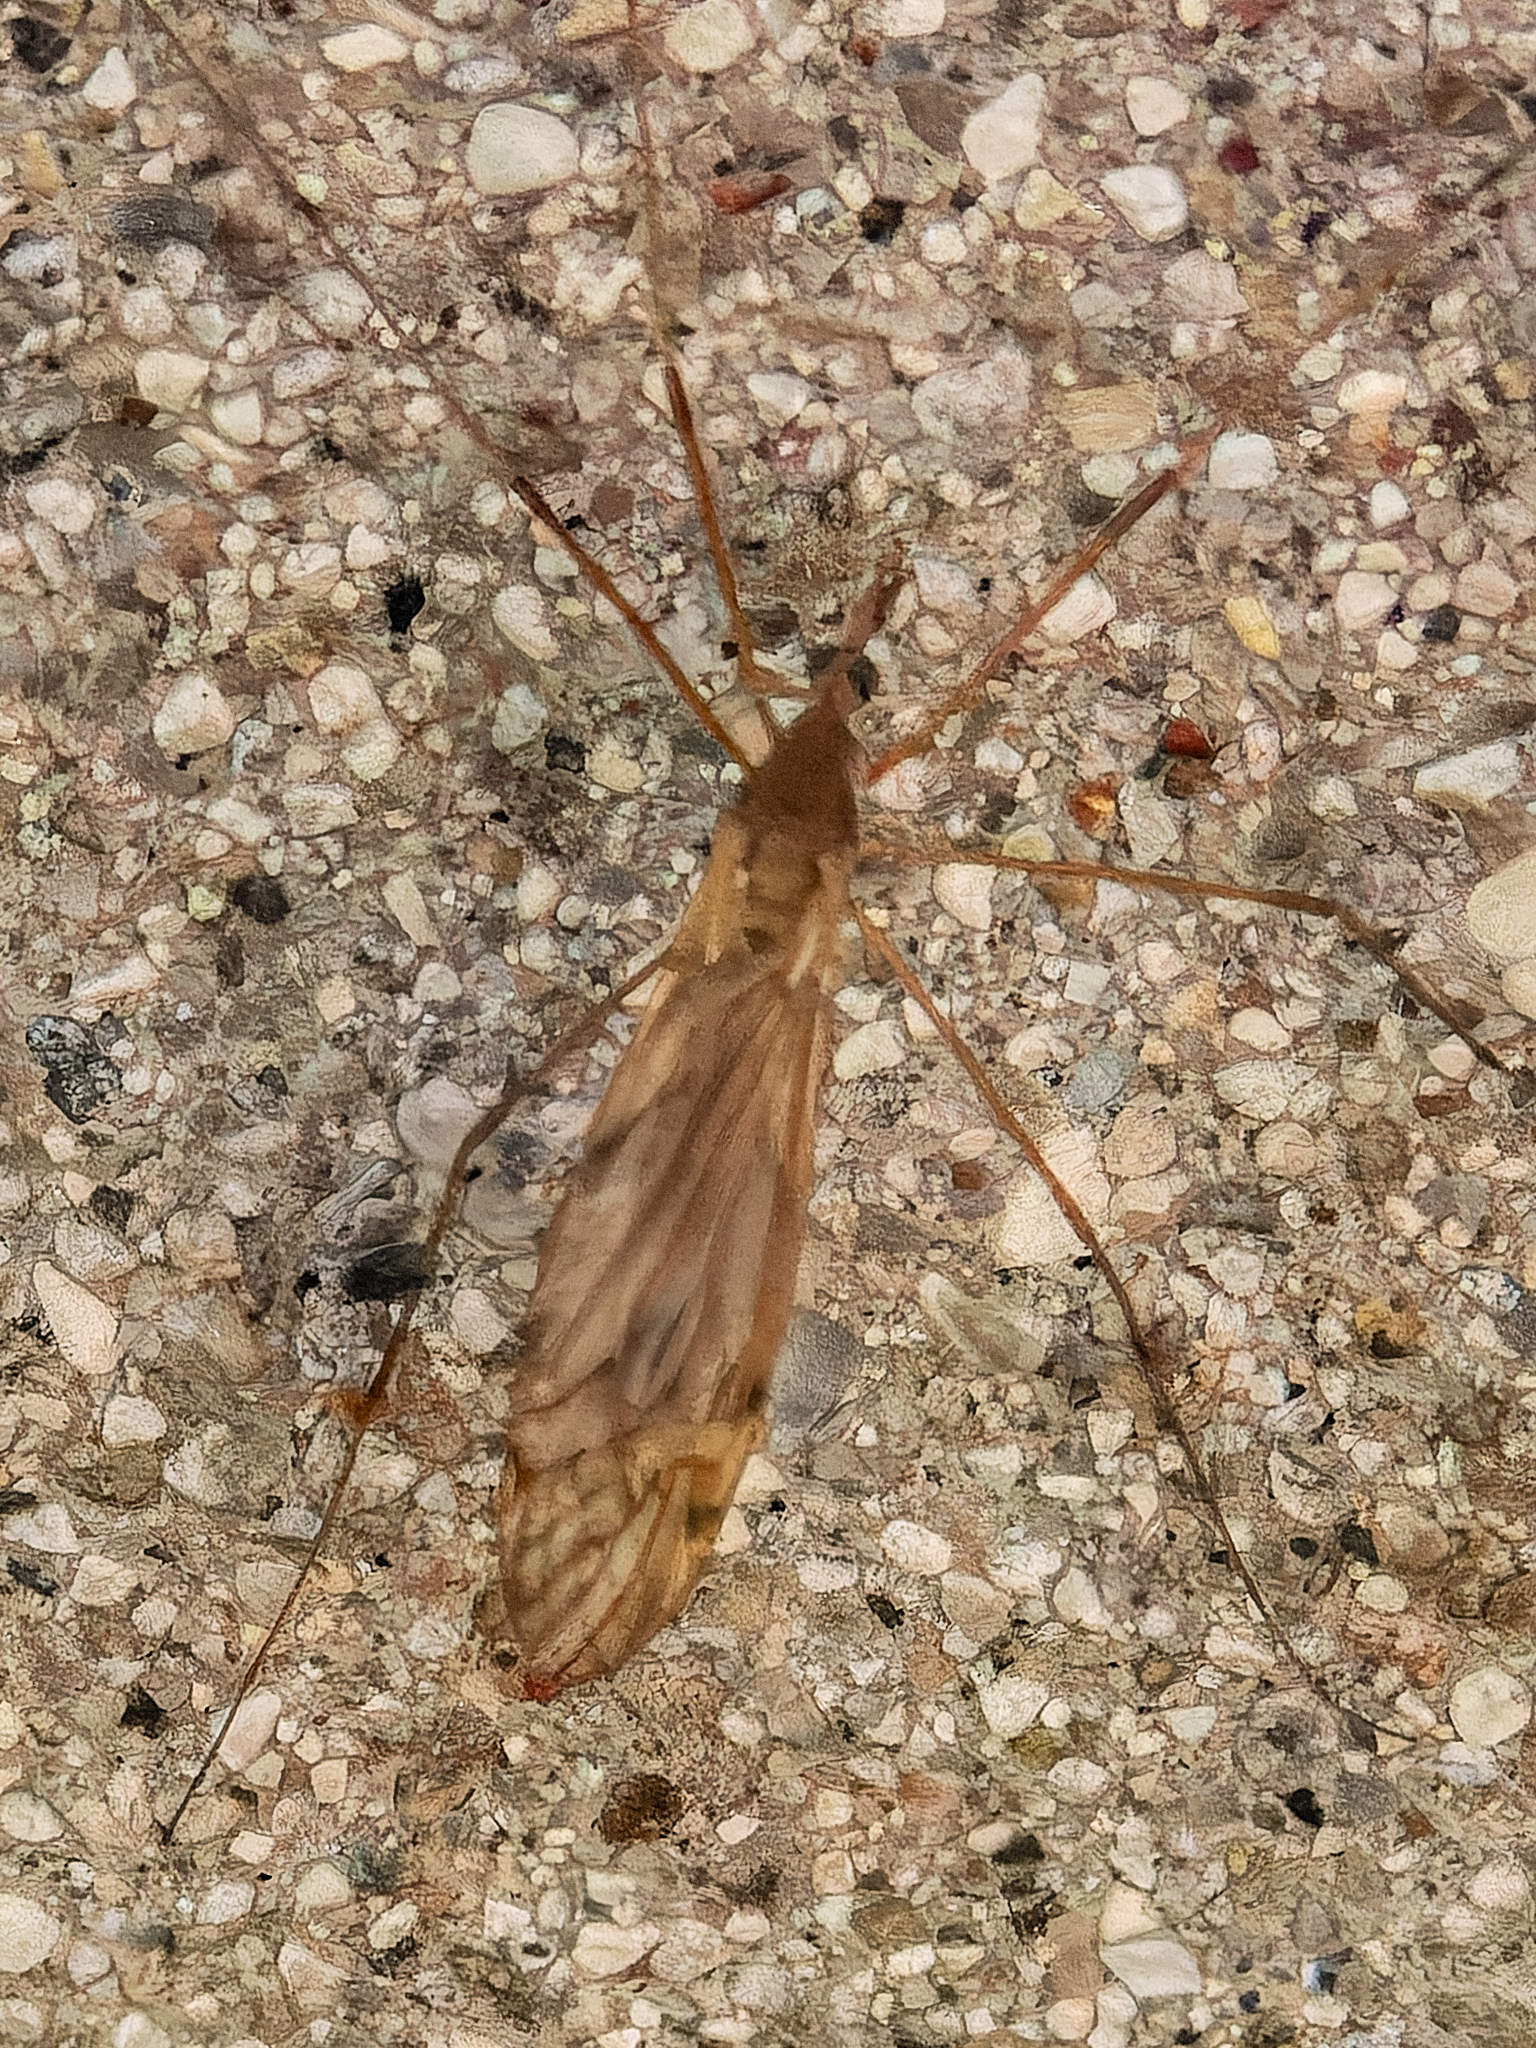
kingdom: Animalia
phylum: Arthropoda
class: Insecta
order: Diptera
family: Tipulidae
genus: Tipula
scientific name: Tipula
